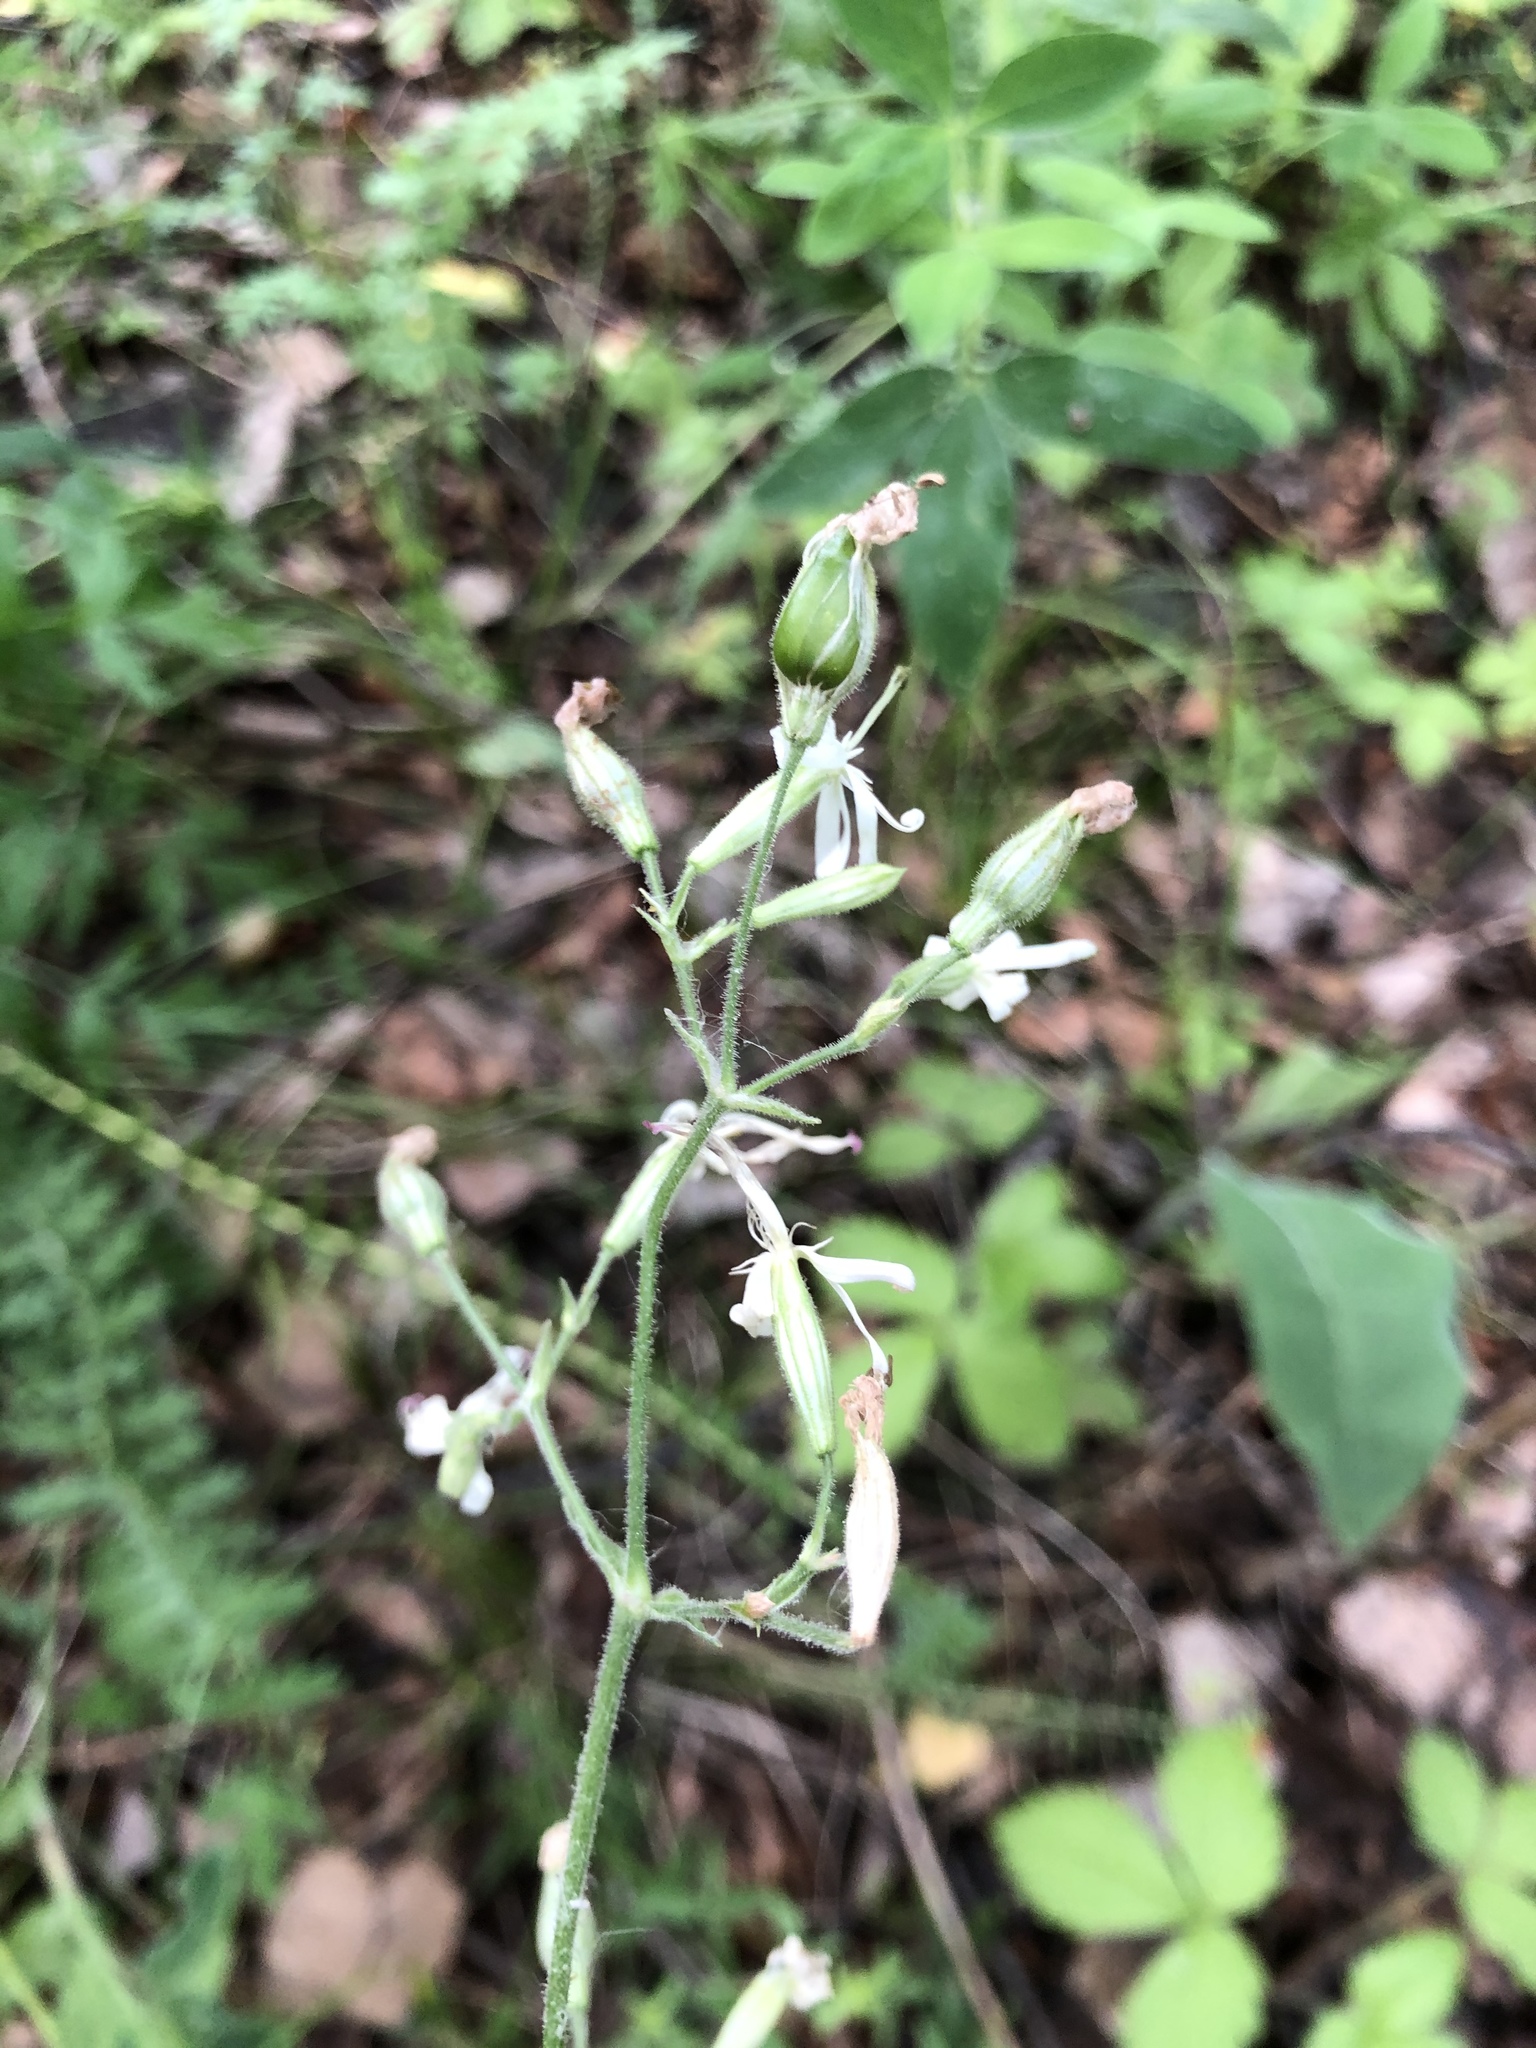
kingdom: Plantae
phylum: Tracheophyta
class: Magnoliopsida
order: Caryophyllales
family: Caryophyllaceae
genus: Silene
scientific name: Silene nutans
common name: Nottingham catchfly
